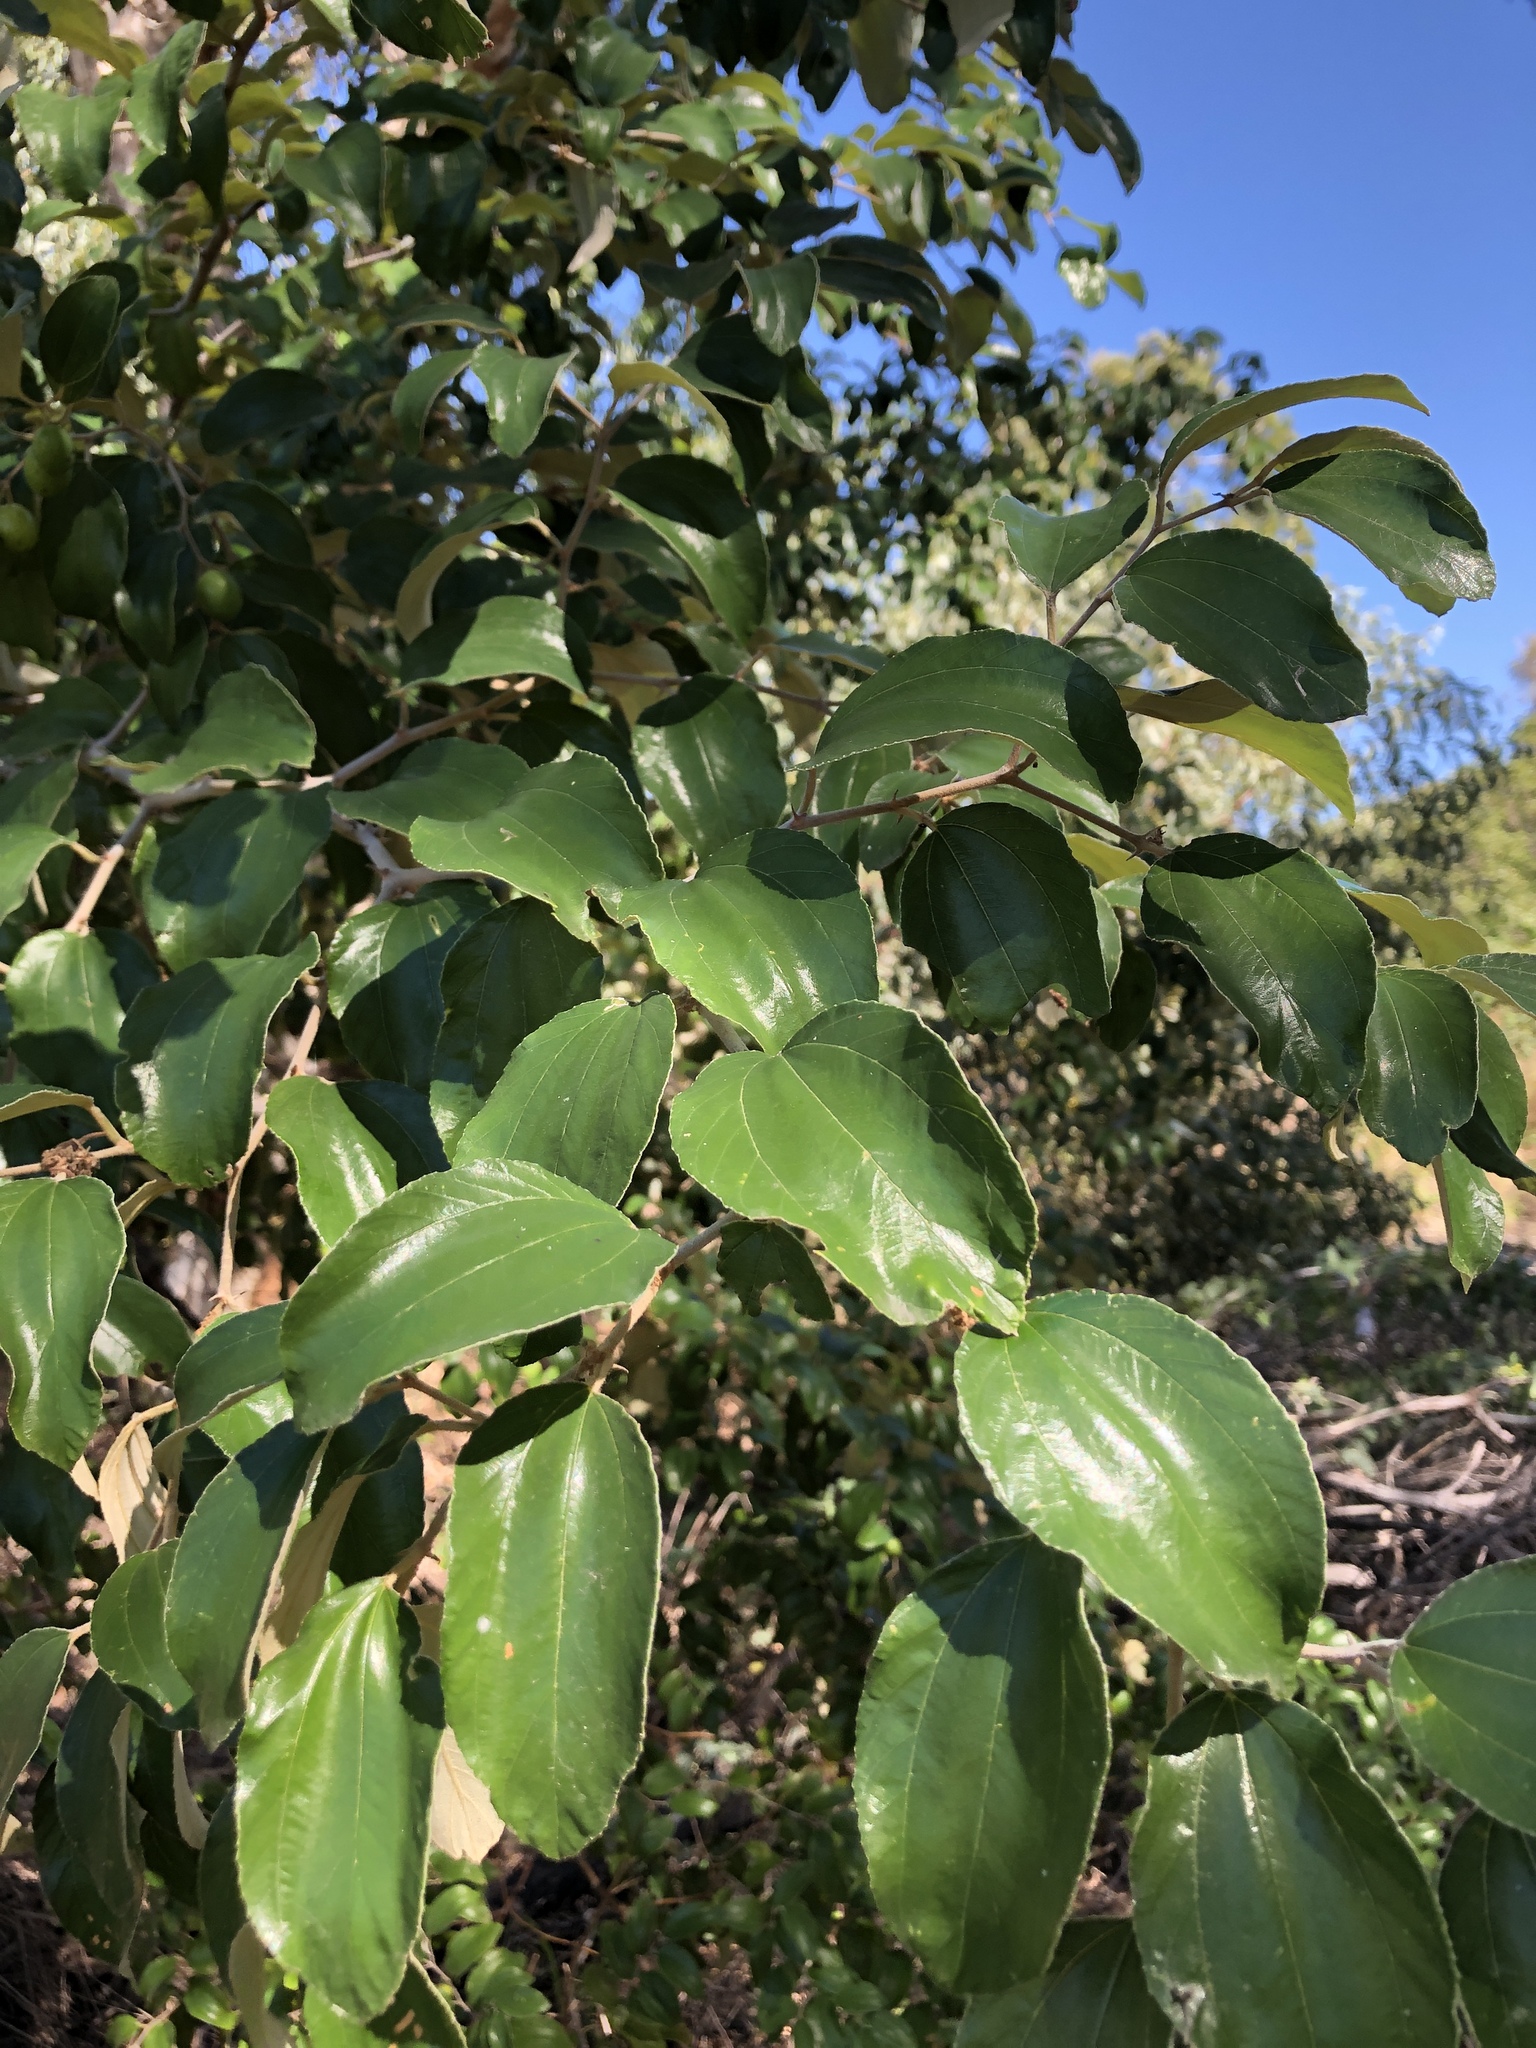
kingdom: Plantae
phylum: Tracheophyta
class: Magnoliopsida
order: Rosales
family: Rhamnaceae
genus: Ziziphus
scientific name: Ziziphus mauritiana
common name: Indian jujube
